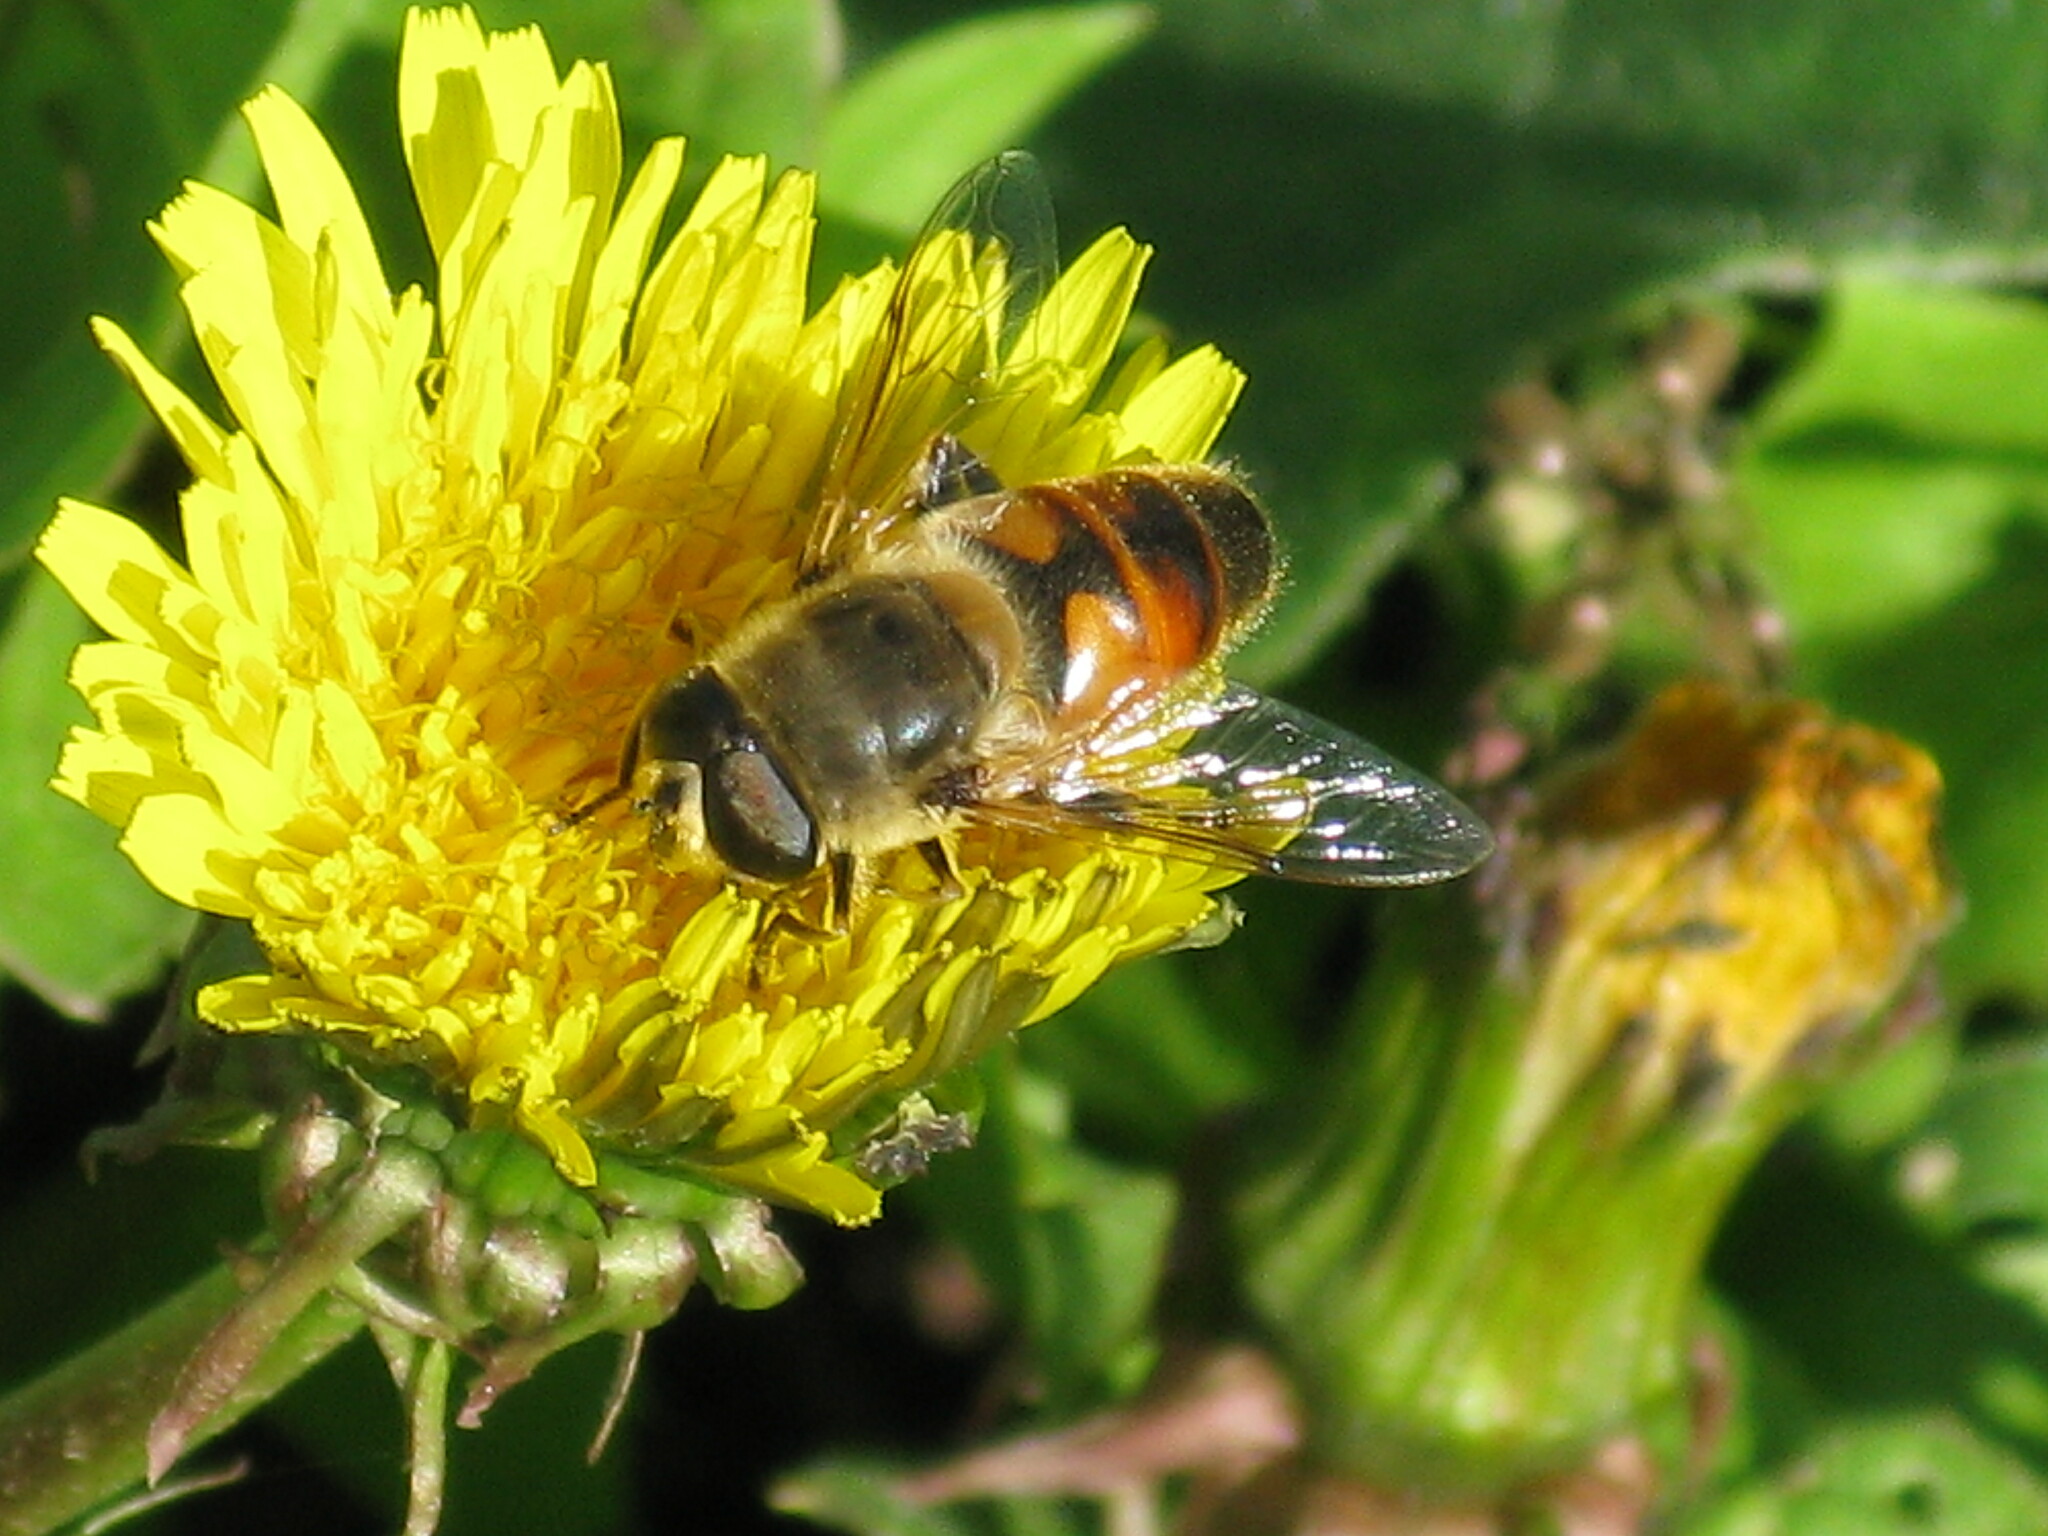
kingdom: Animalia
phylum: Arthropoda
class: Insecta
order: Diptera
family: Syrphidae
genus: Eristalis
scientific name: Eristalis tenax
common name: Drone fly
